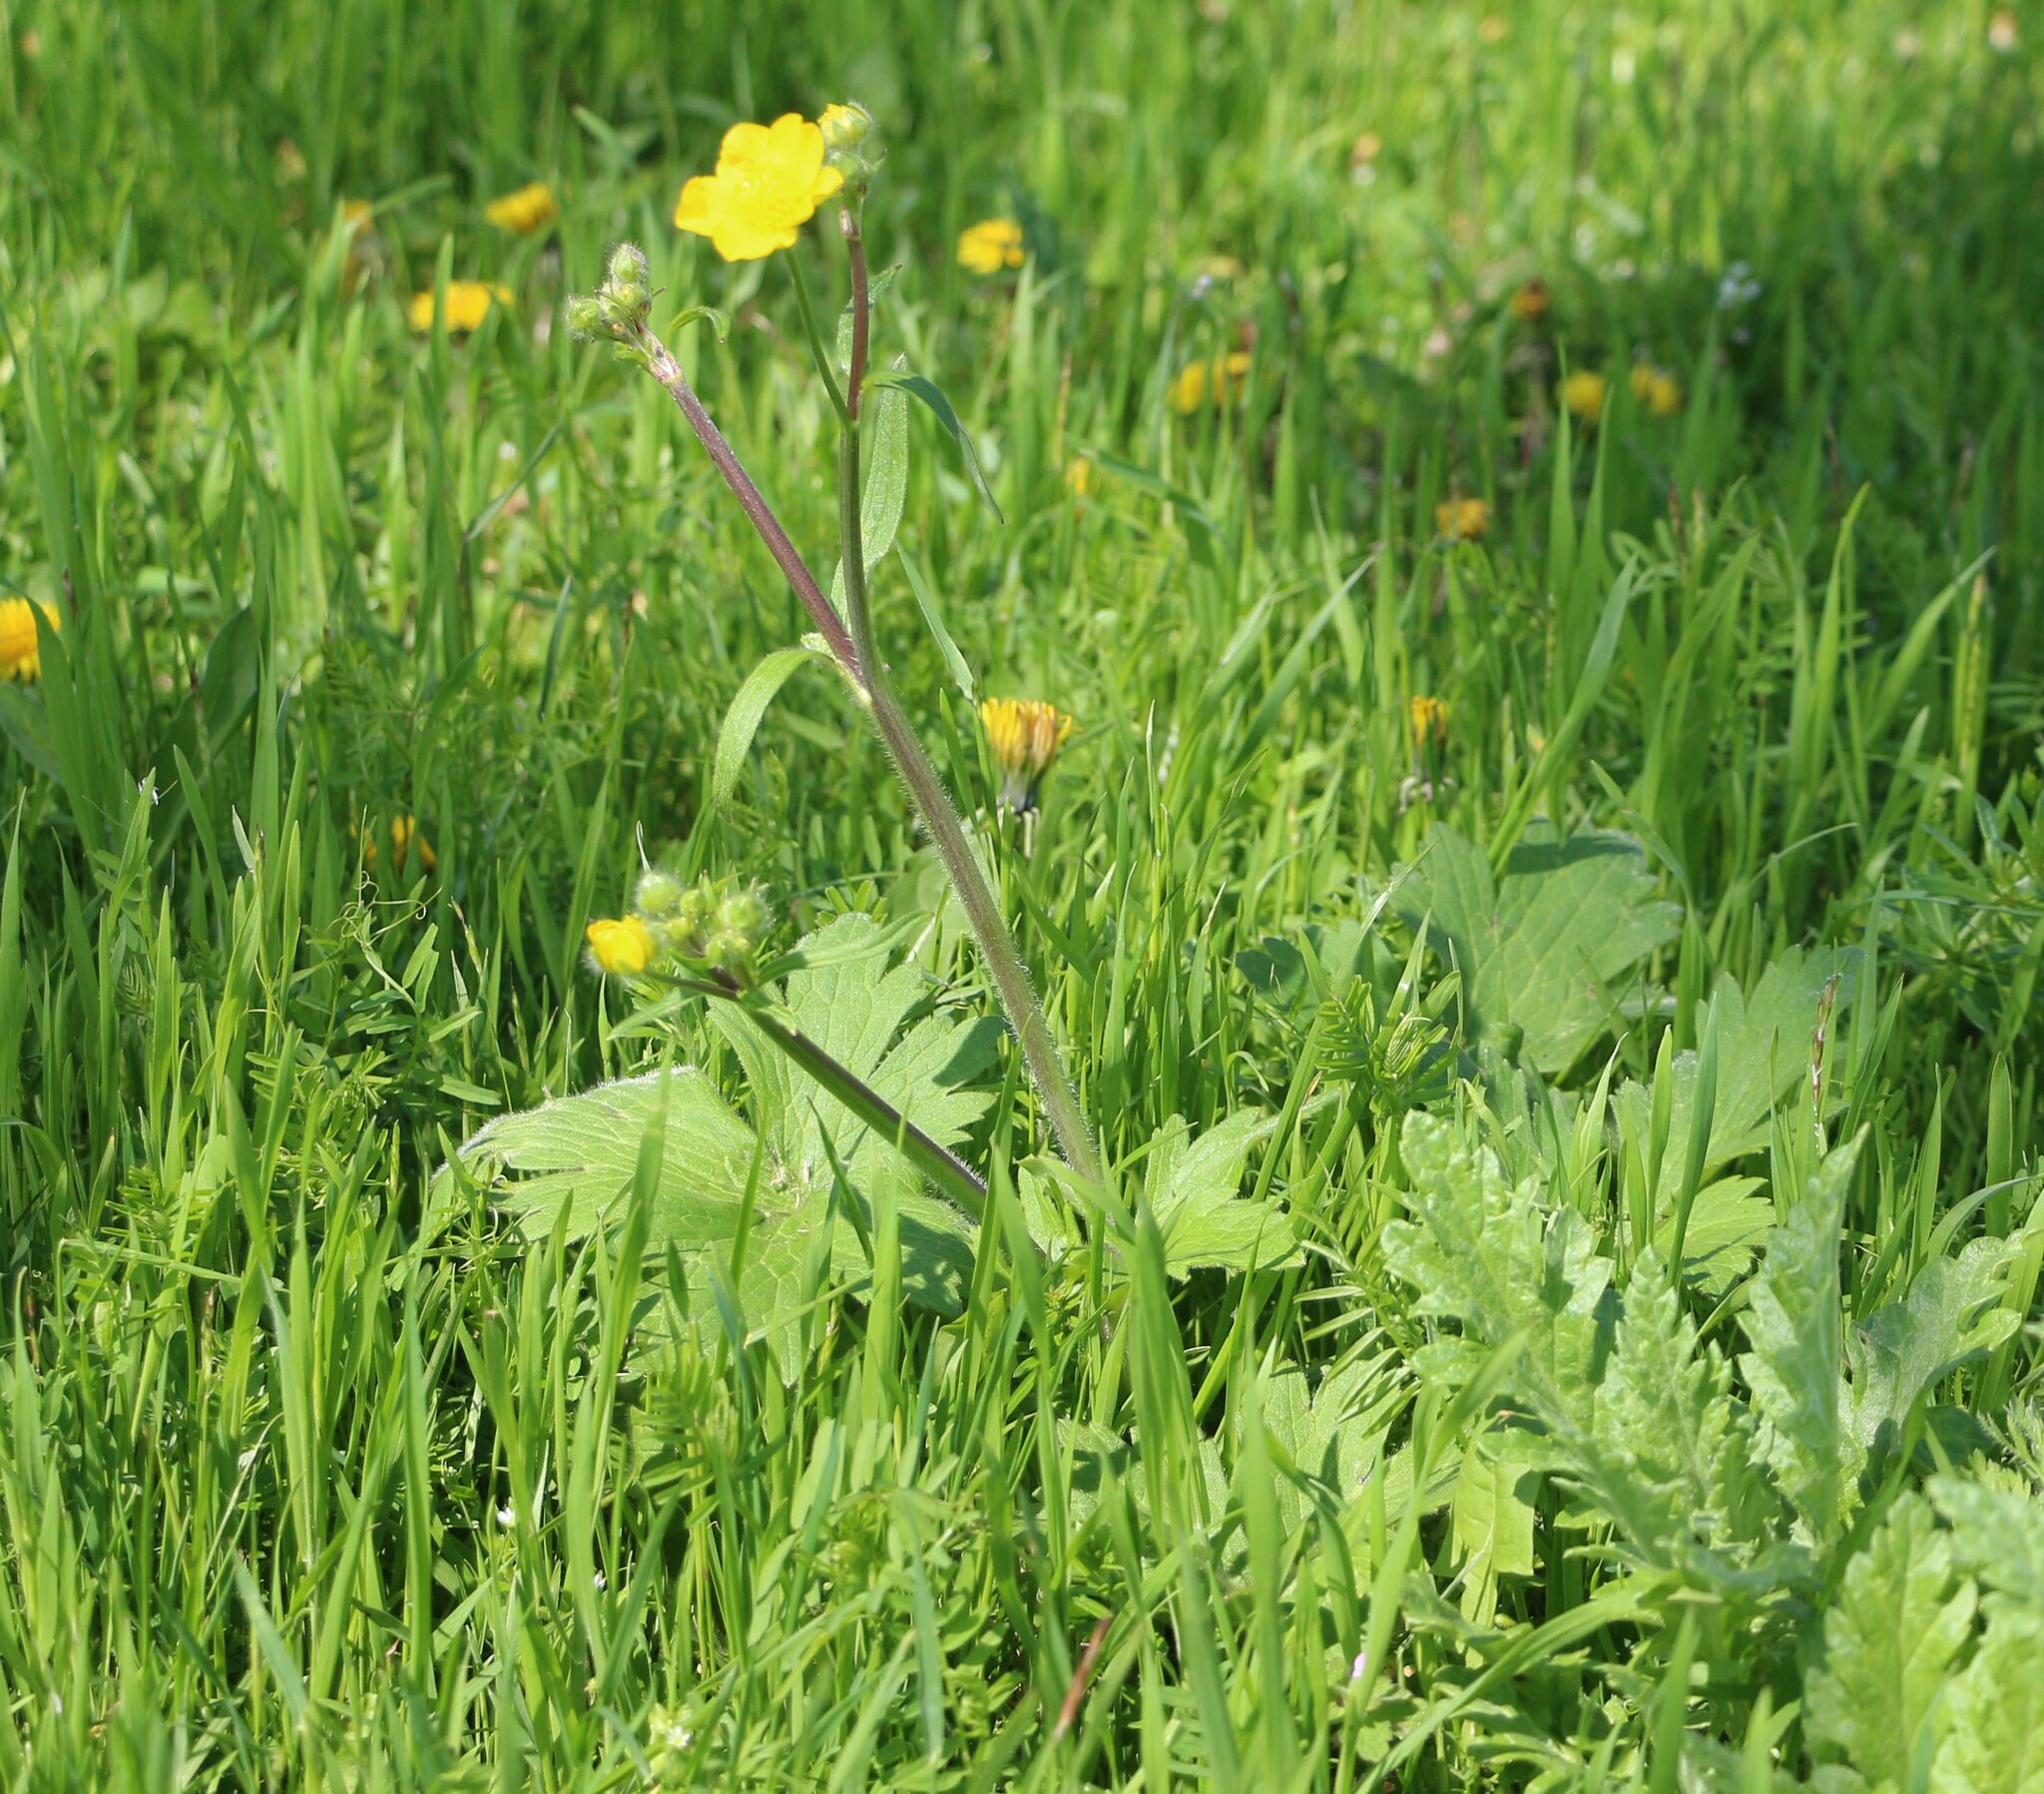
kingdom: Plantae
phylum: Tracheophyta
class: Magnoliopsida
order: Ranunculales
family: Ranunculaceae
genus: Ranunculus
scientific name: Ranunculus constantinopolitanus
